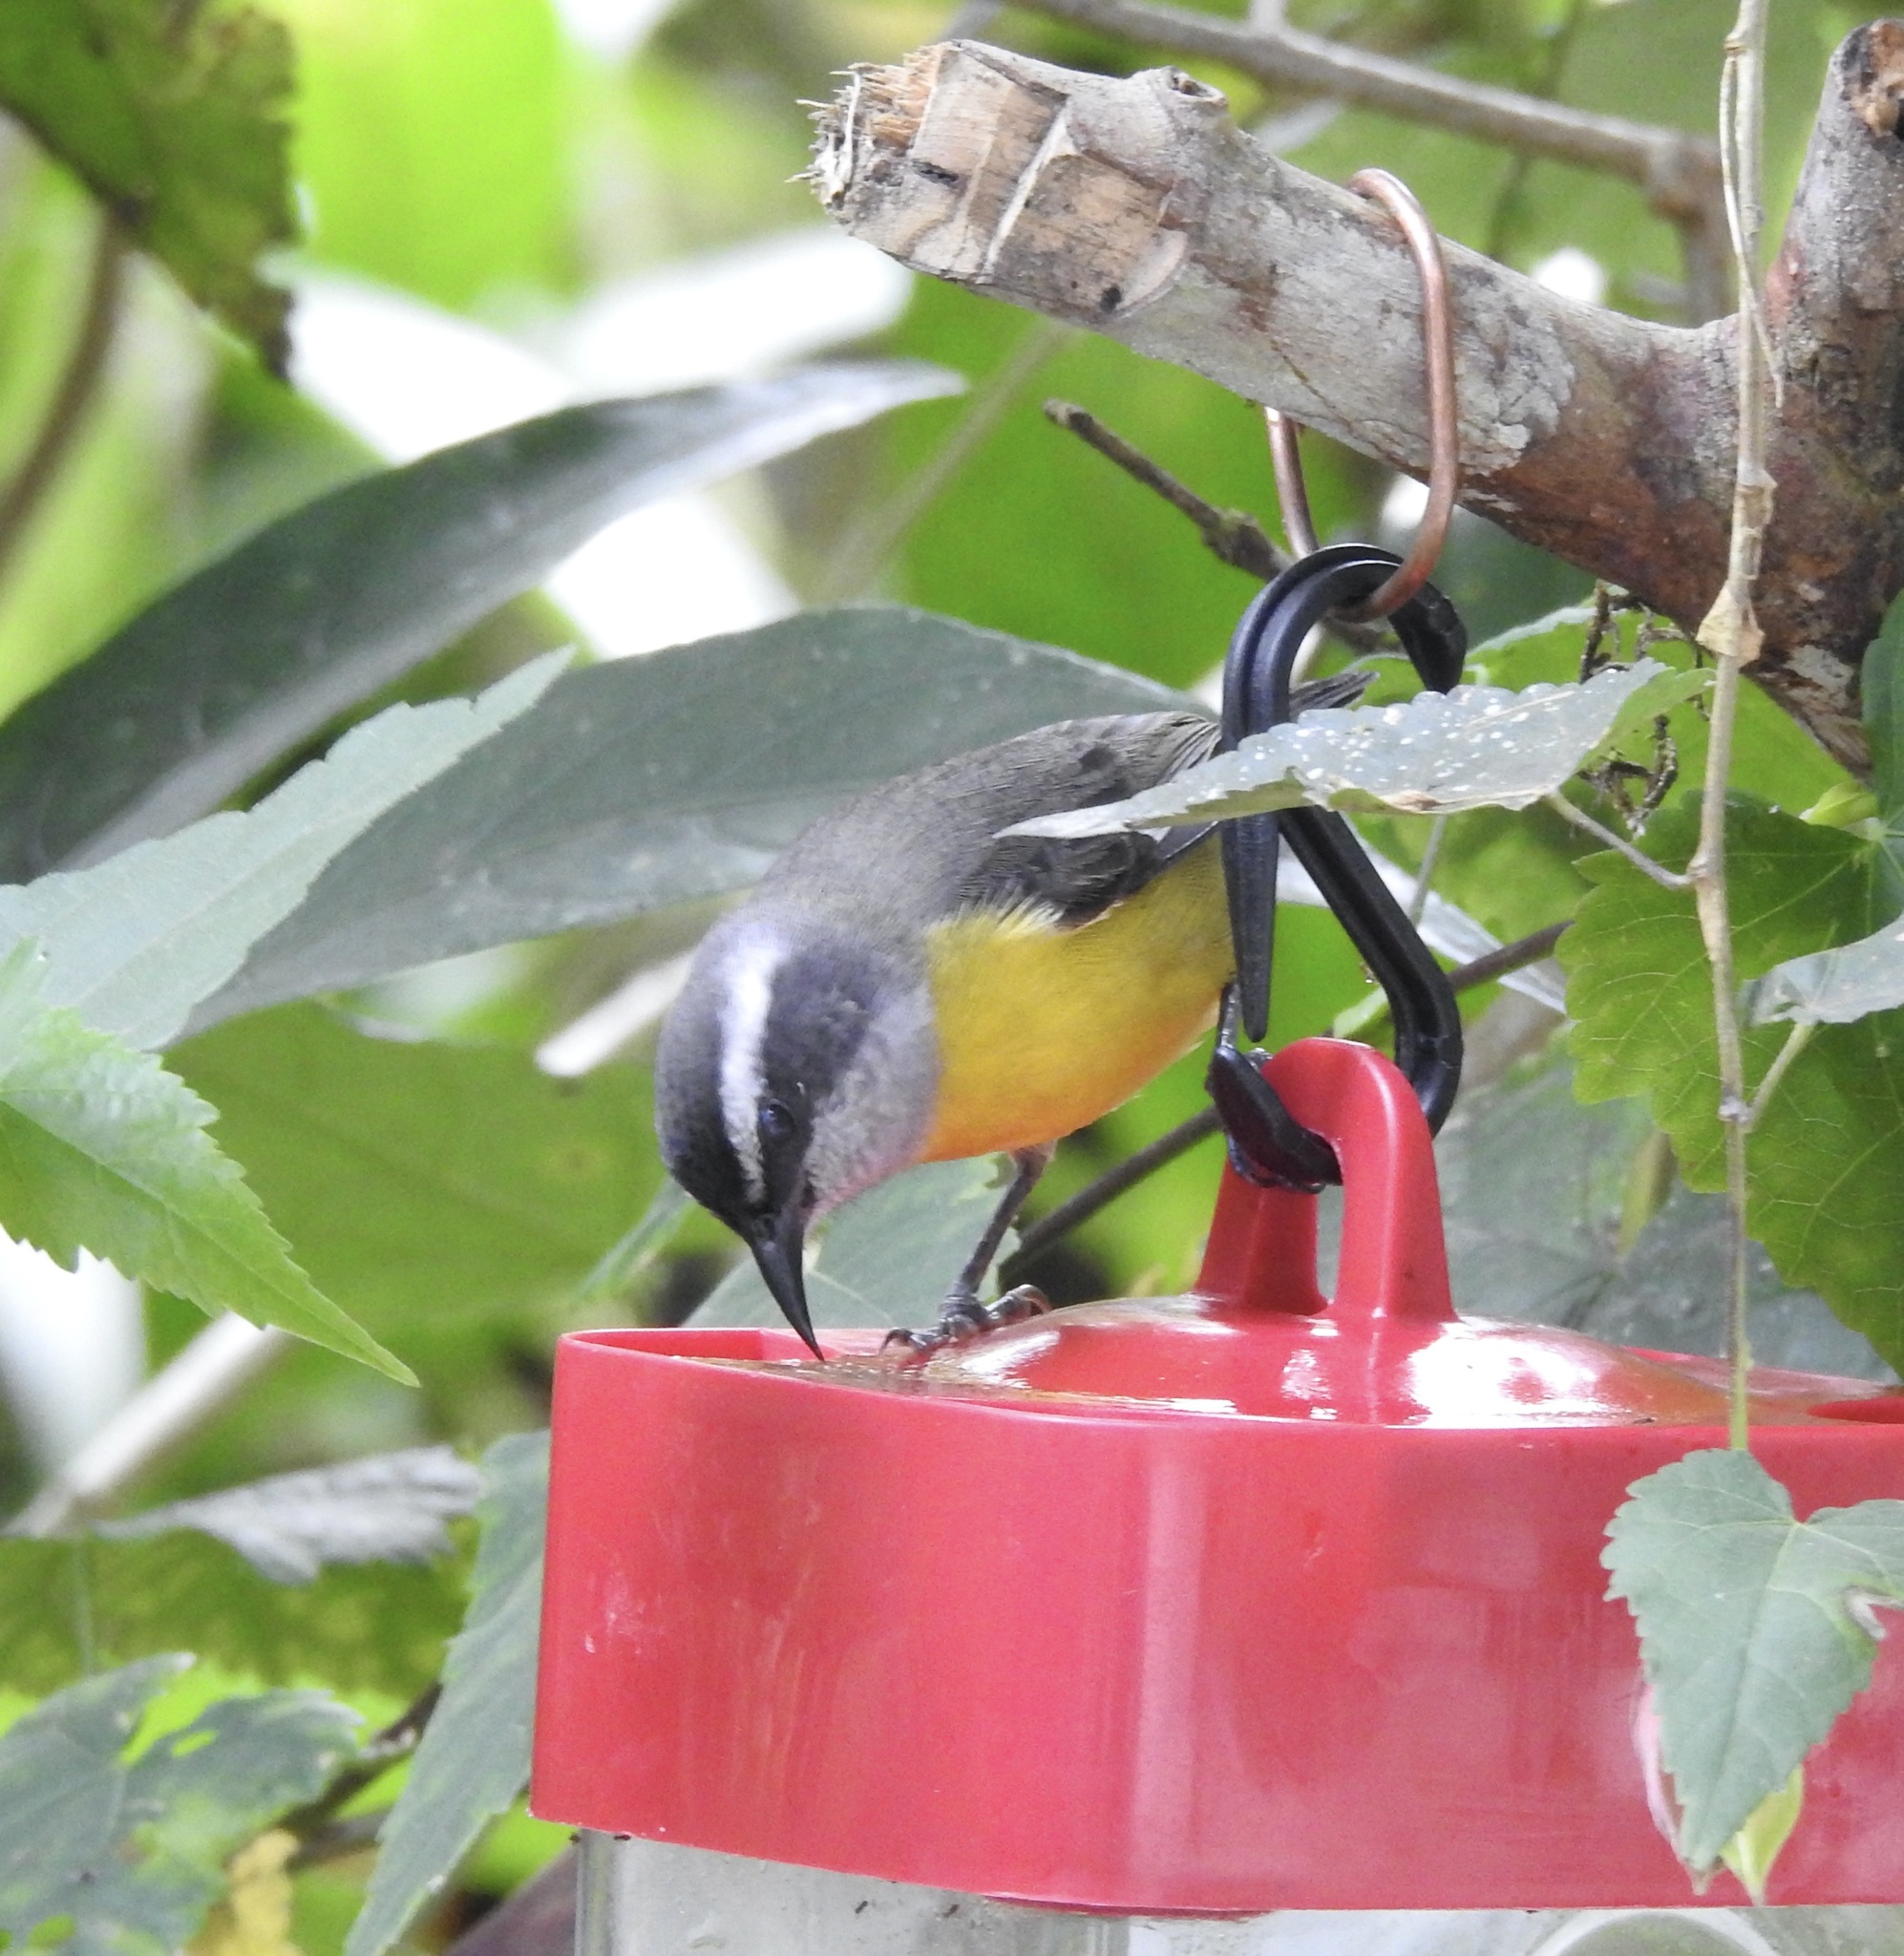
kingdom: Animalia
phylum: Chordata
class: Aves
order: Passeriformes
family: Thraupidae
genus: Coereba
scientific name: Coereba flaveola
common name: Bananaquit
